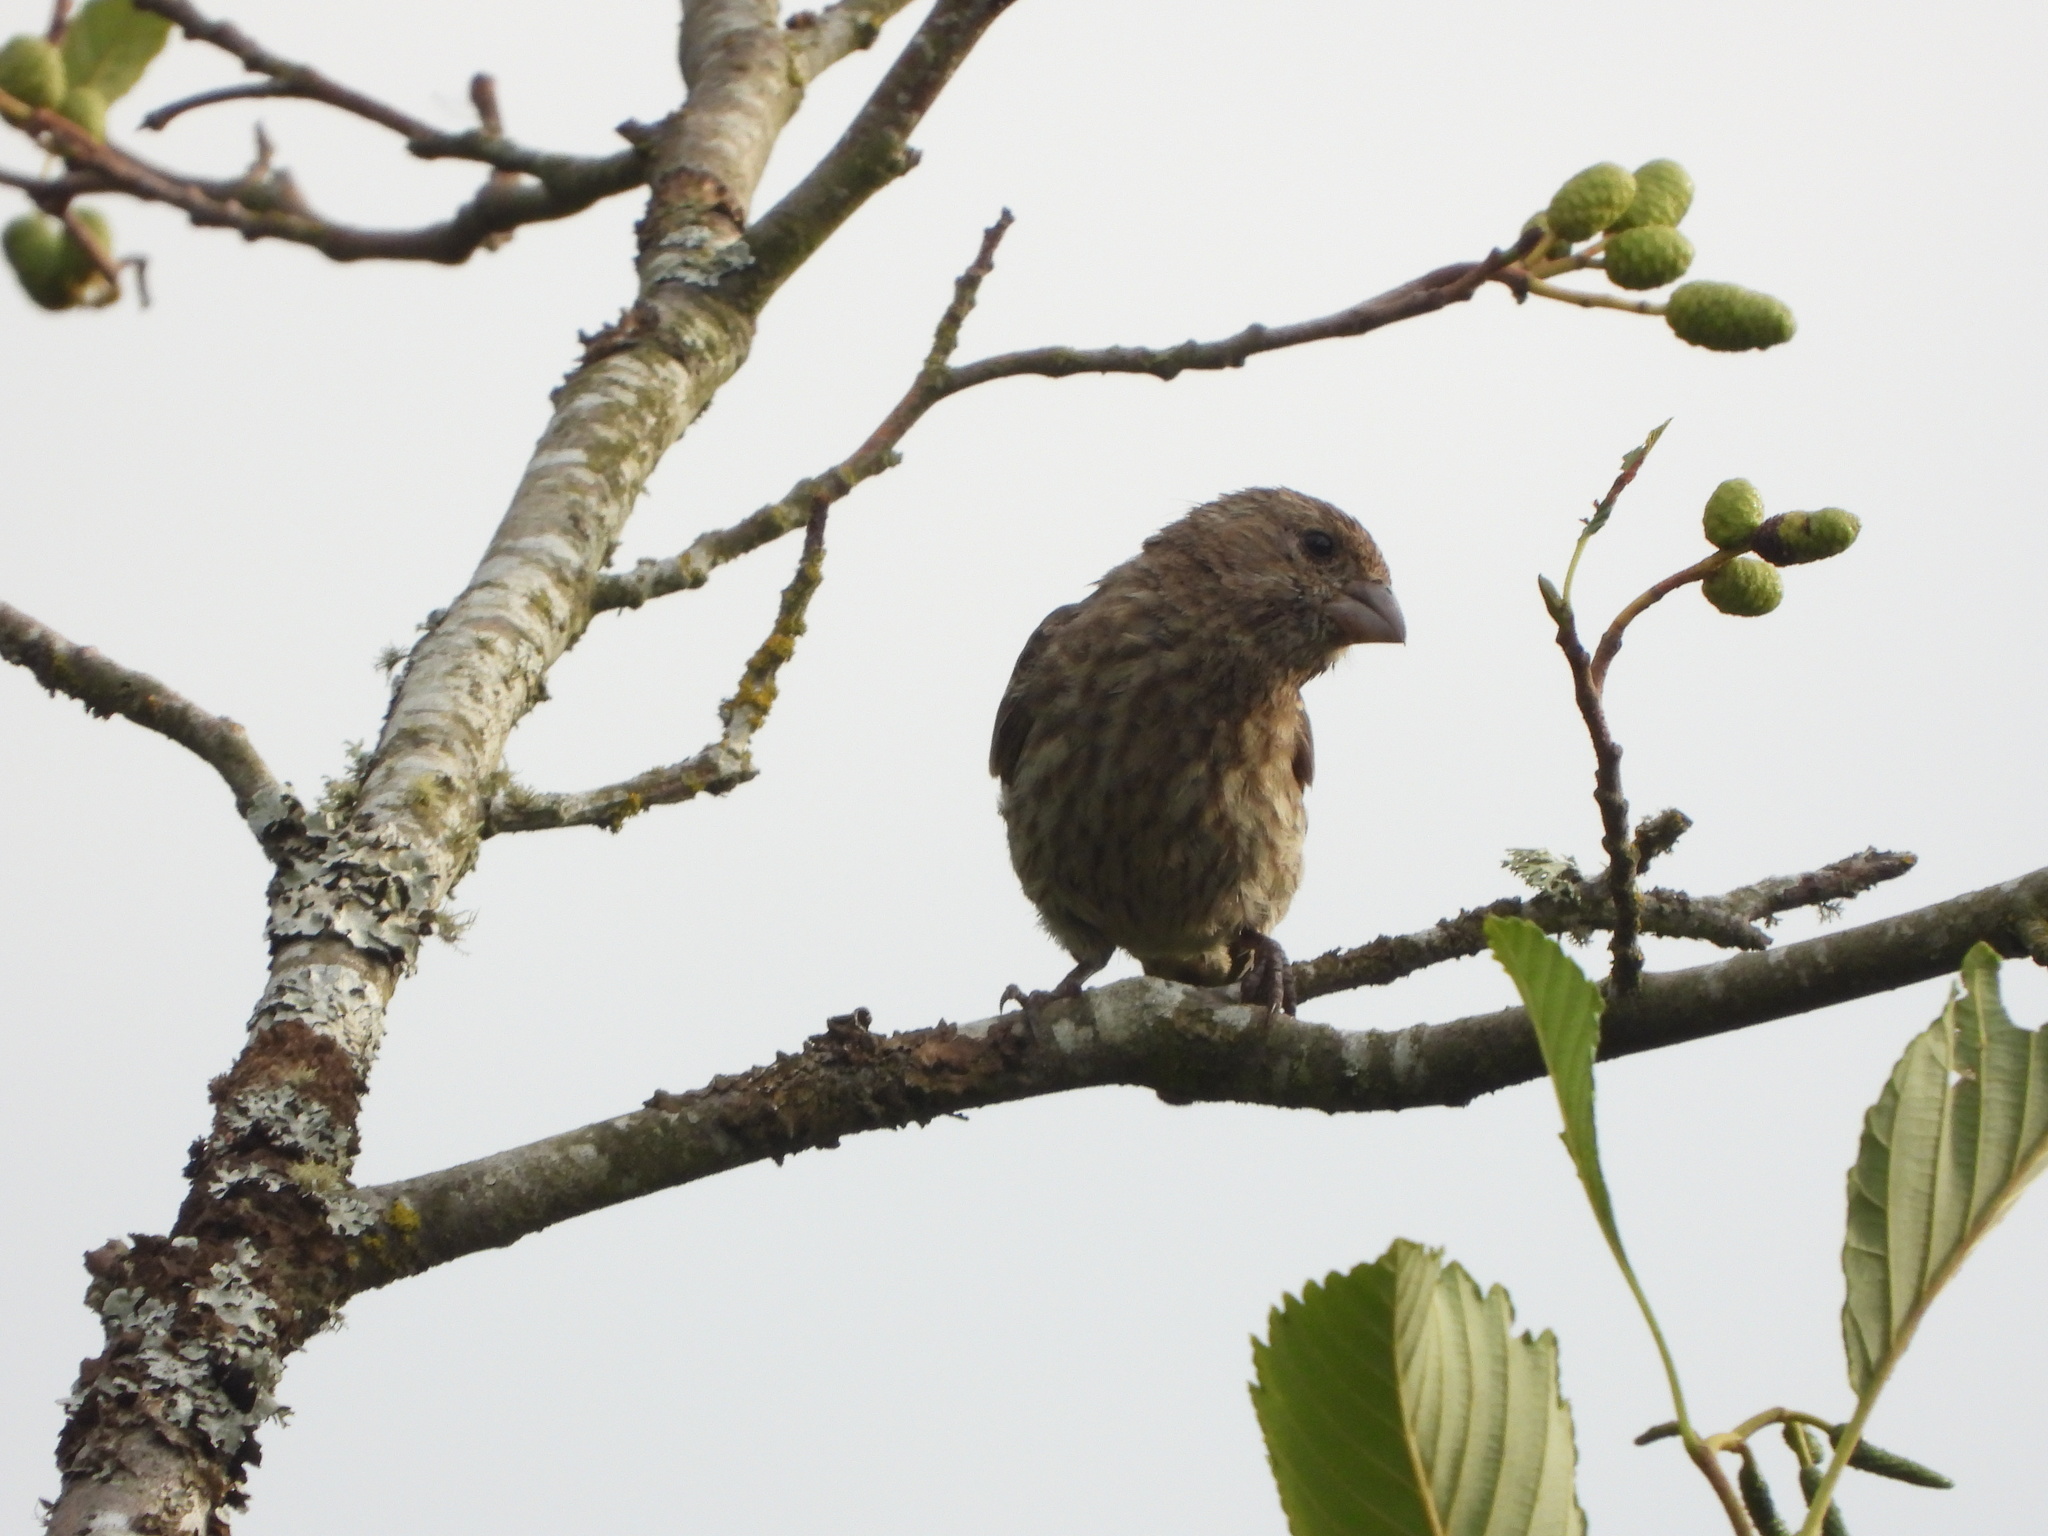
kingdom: Animalia
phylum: Chordata
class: Aves
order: Passeriformes
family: Fringillidae
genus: Haemorhous
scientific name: Haemorhous mexicanus
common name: House finch
